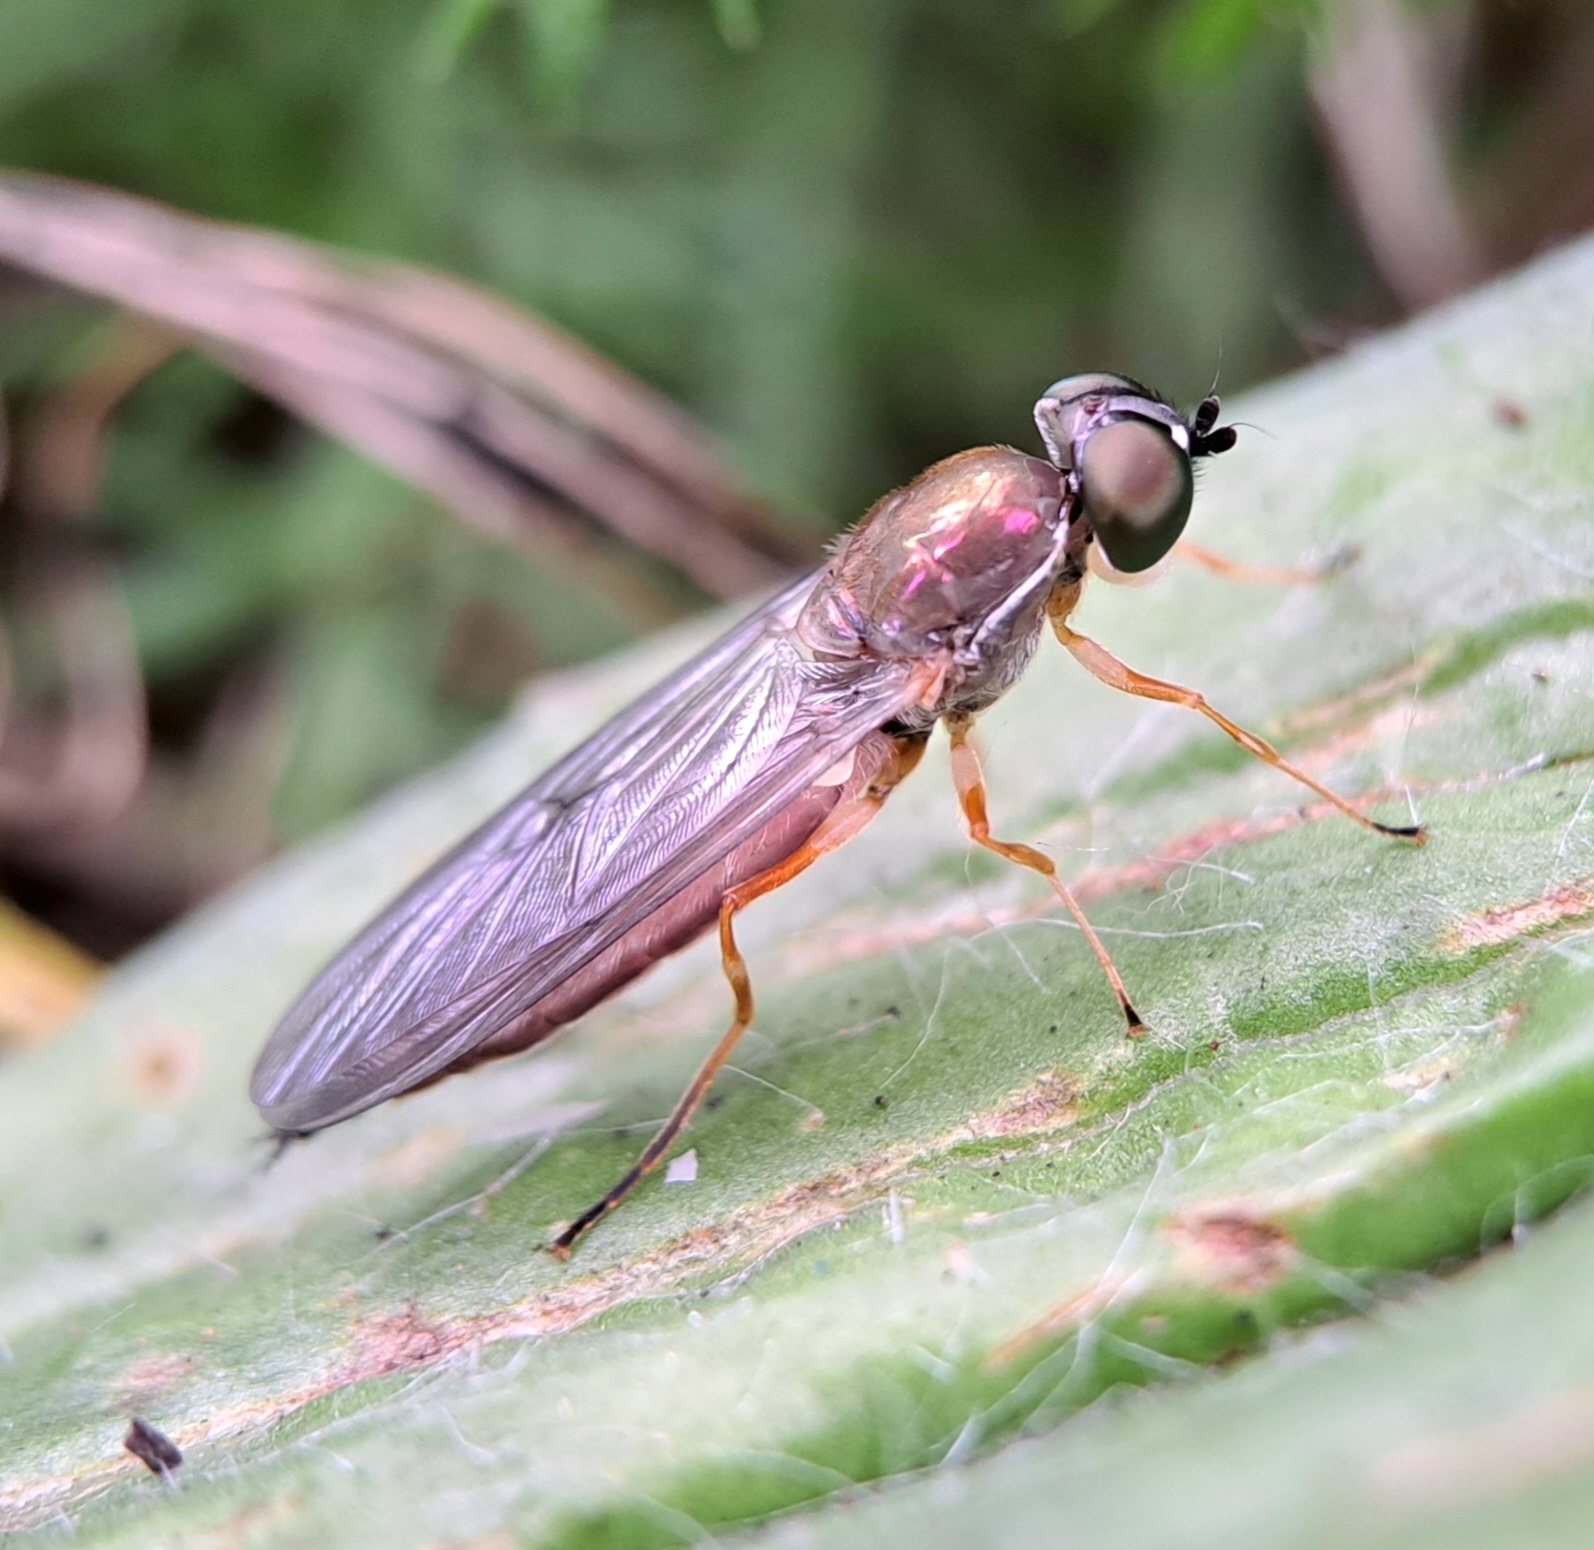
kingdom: Animalia
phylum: Arthropoda
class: Insecta
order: Diptera
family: Stratiomyidae
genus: Sargus
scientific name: Sargus bipunctatus
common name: Twin-spot centurion
